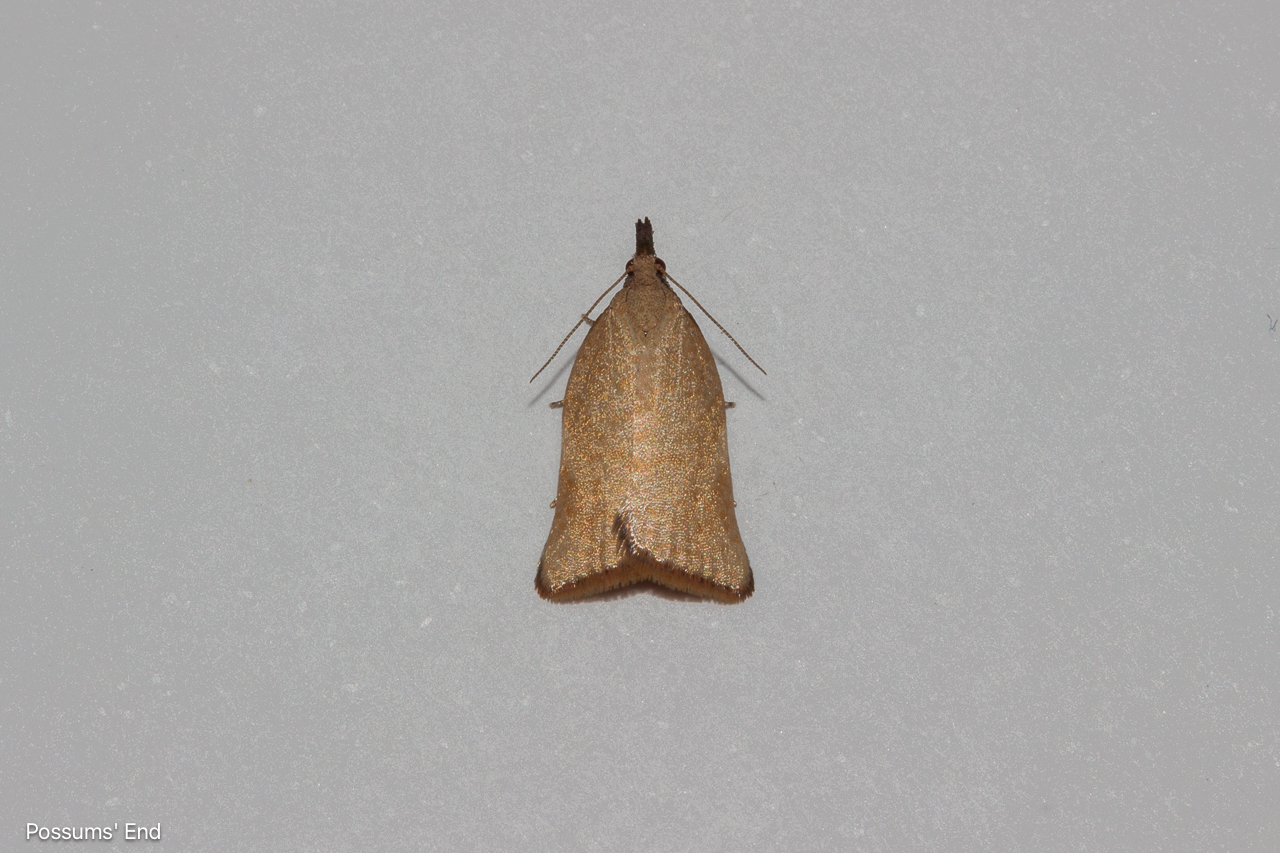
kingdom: Animalia
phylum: Arthropoda
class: Insecta
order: Lepidoptera
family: Tortricidae
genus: Catamacta
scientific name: Catamacta gavisana
